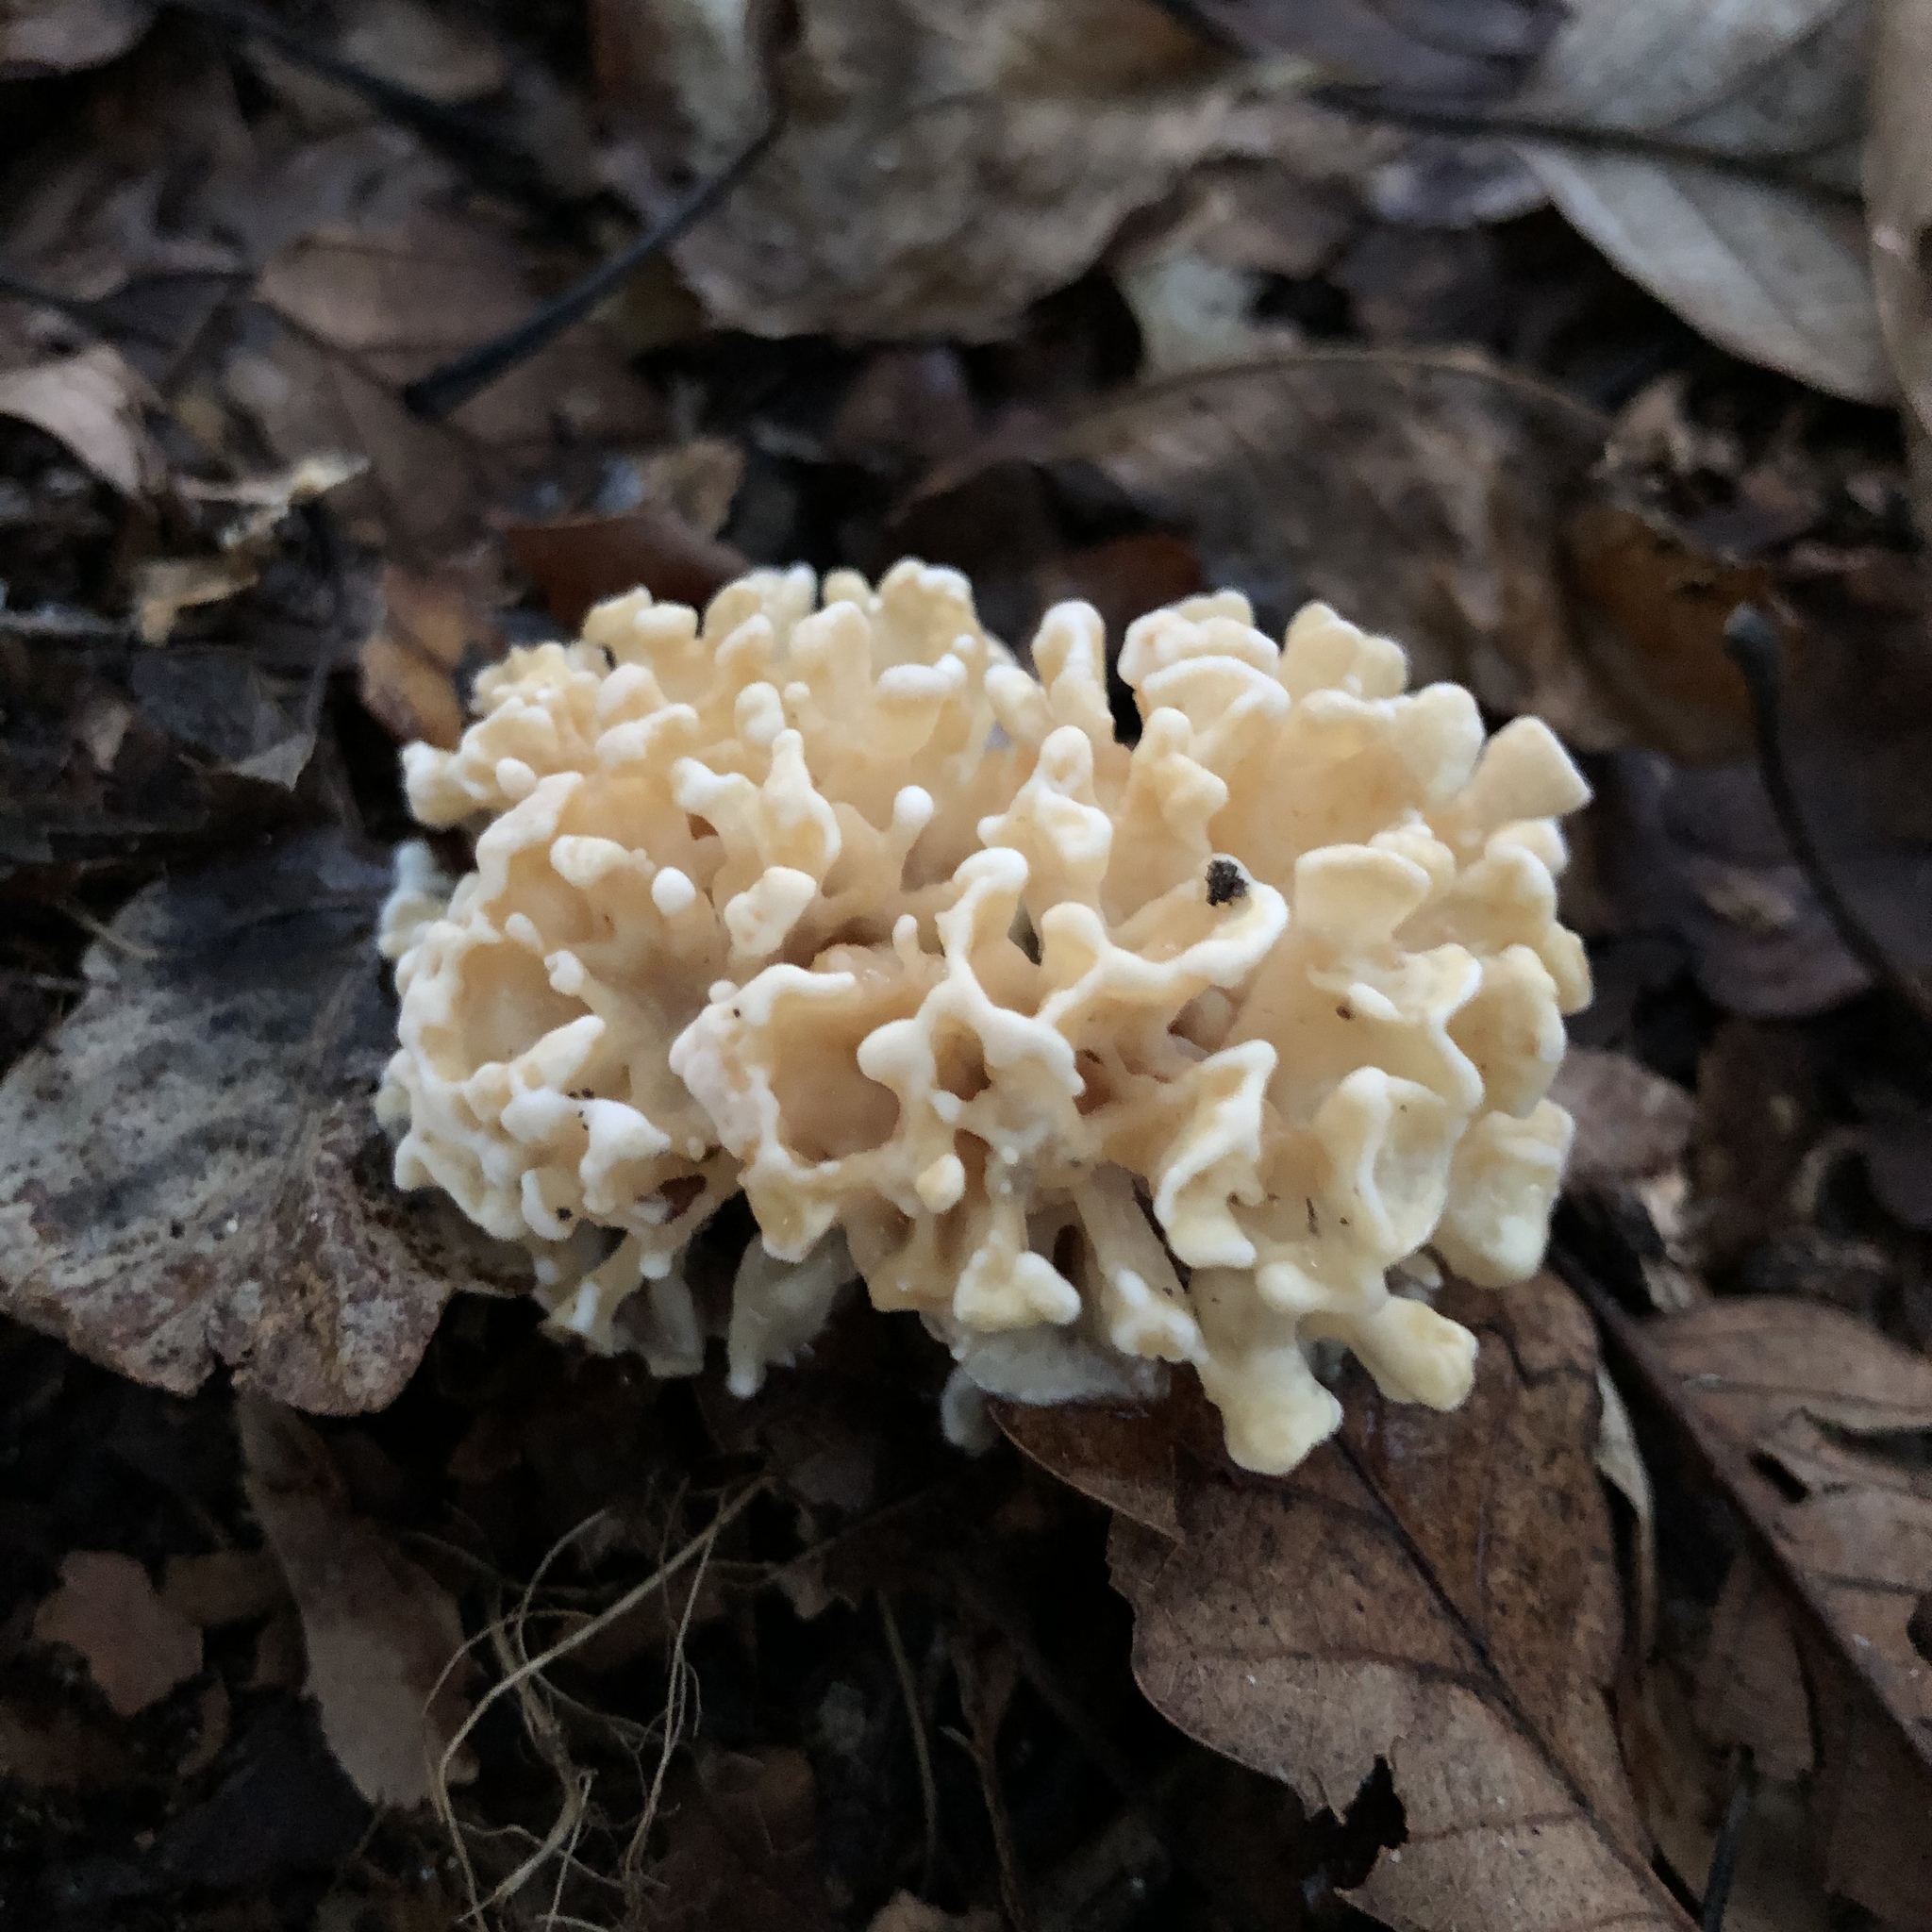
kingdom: Fungi
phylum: Basidiomycota
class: Agaricomycetes
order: Polyporales
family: Sparassidaceae
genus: Sparassis
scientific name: Sparassis spathulata
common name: Eastern cauliflower mushroom
